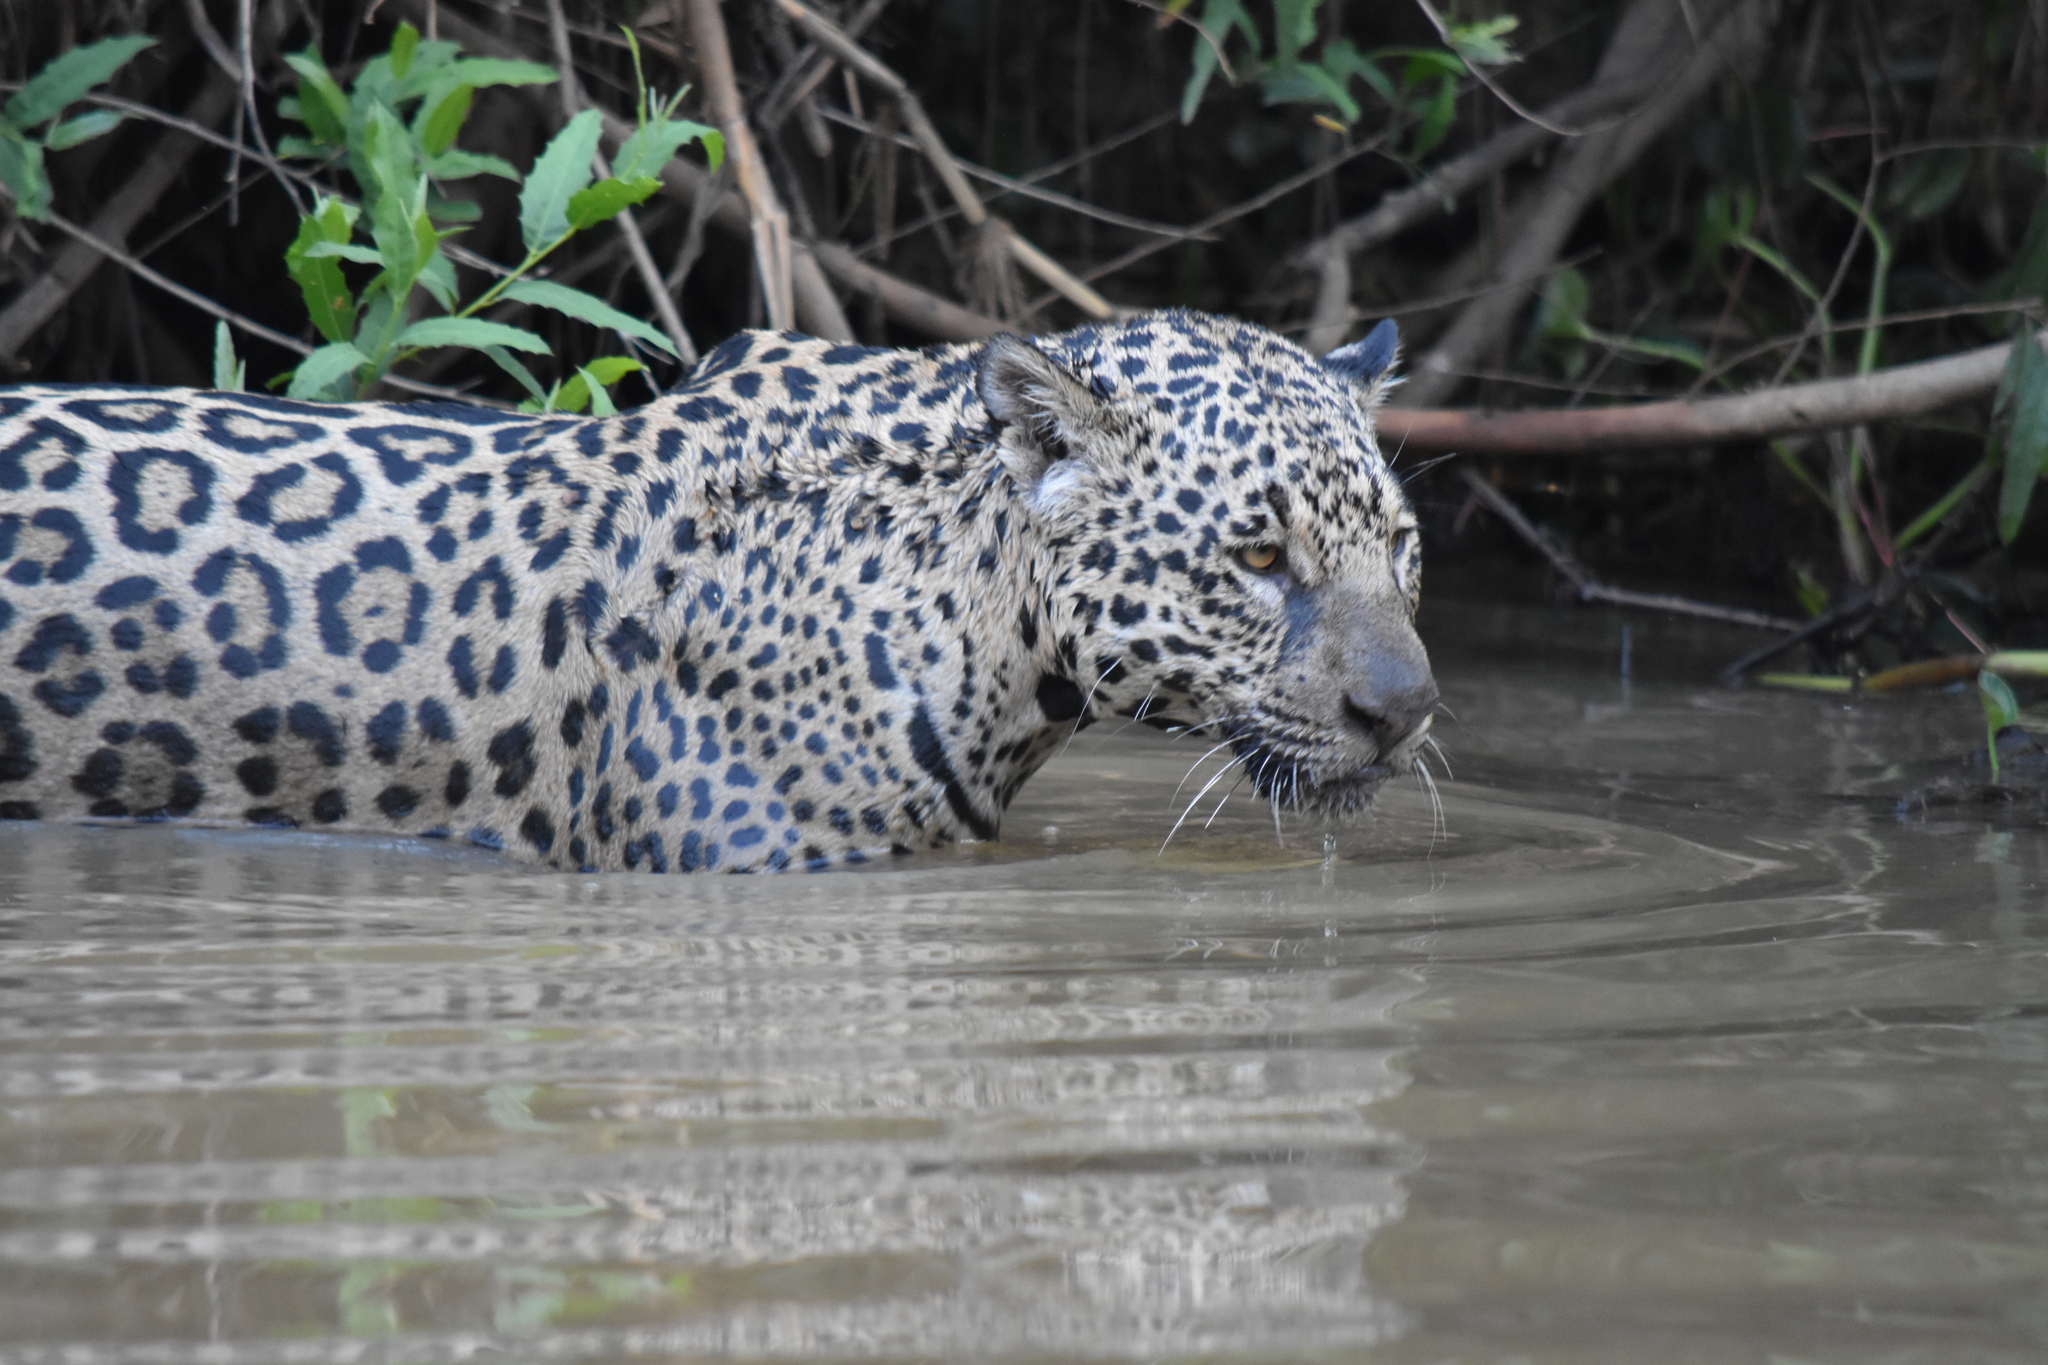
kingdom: Animalia
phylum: Chordata
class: Mammalia
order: Carnivora
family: Felidae
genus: Panthera
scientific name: Panthera onca
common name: Jaguar
